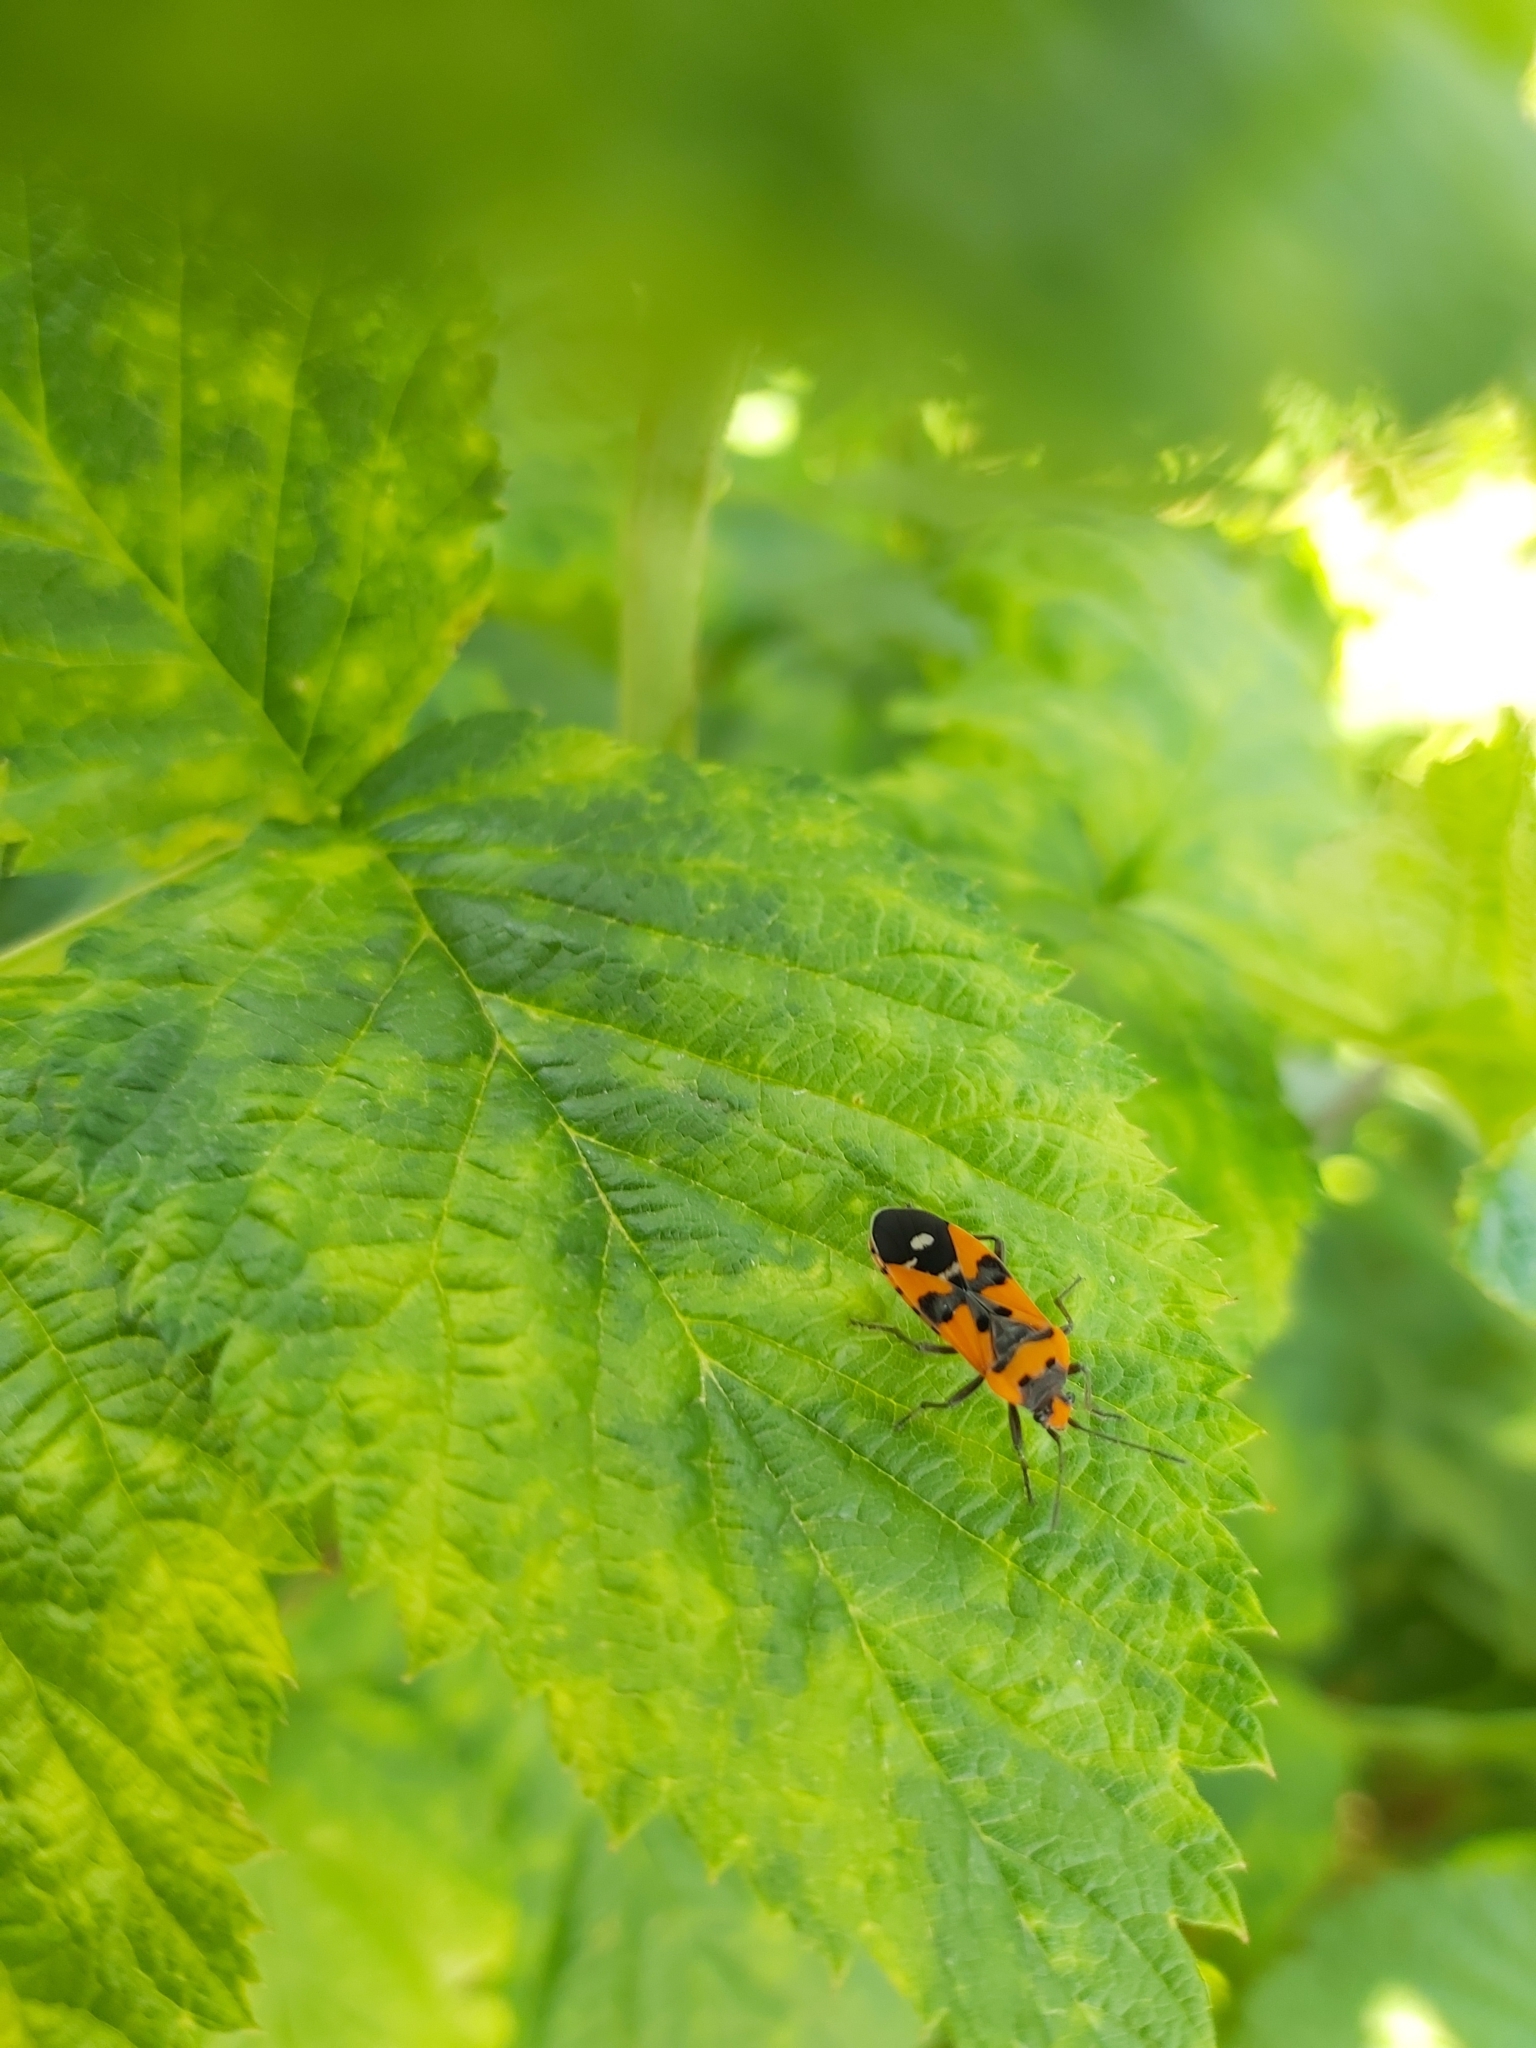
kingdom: Animalia
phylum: Arthropoda
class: Insecta
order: Hemiptera
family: Lygaeidae
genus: Lygaeus
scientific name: Lygaeus equestris
